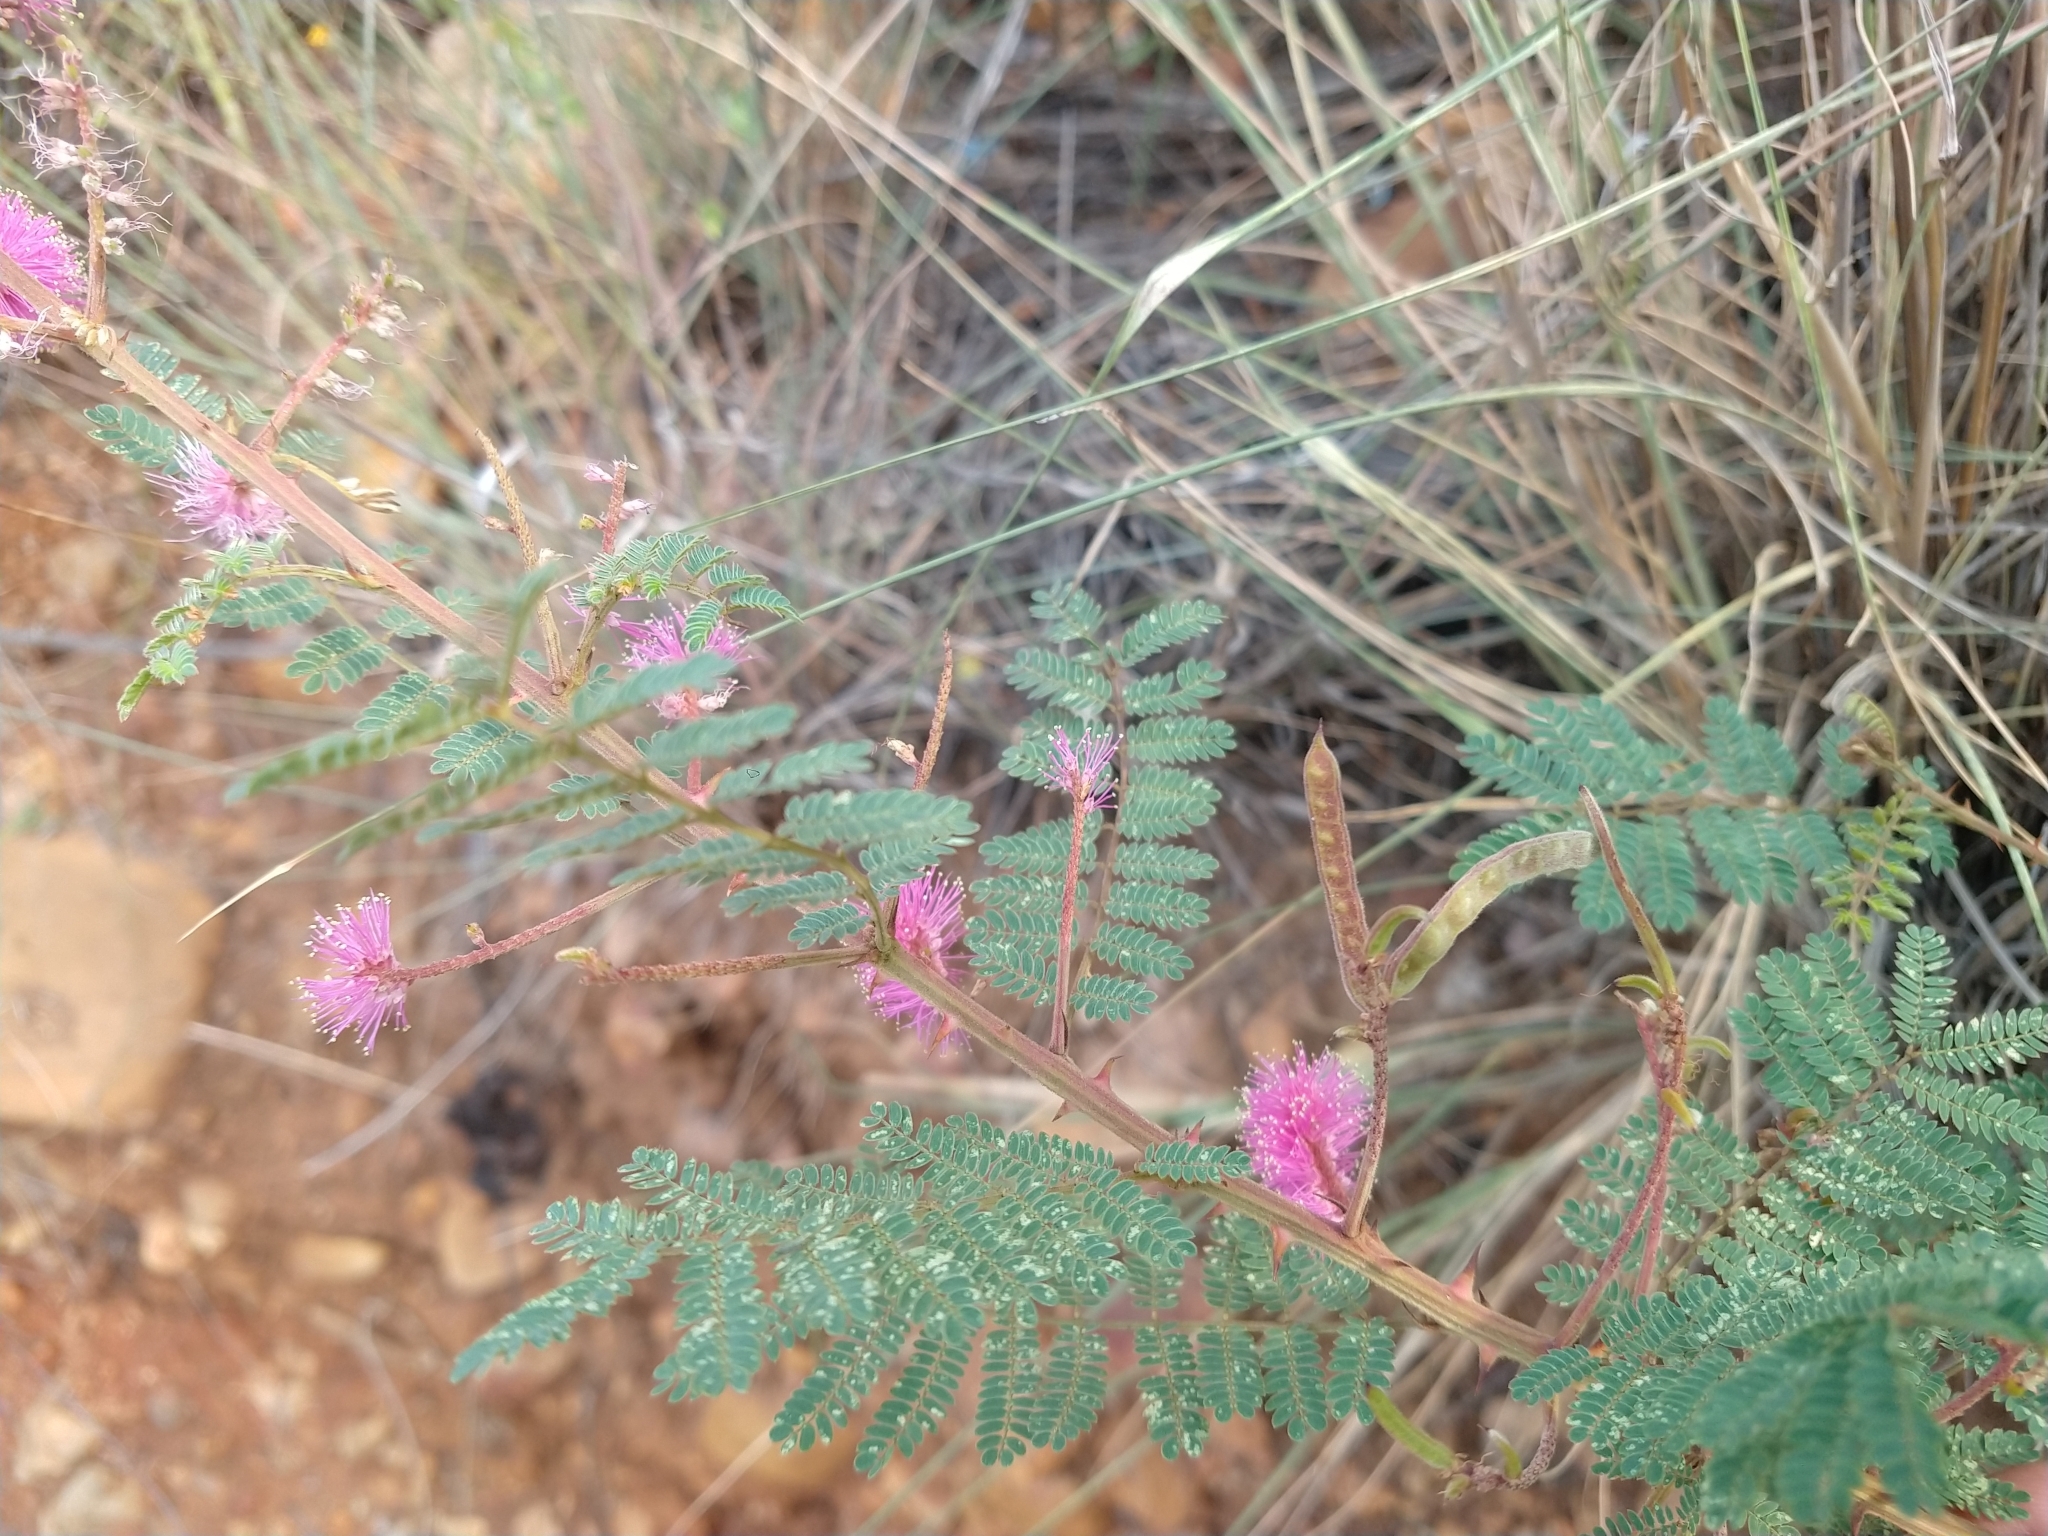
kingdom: Plantae
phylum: Tracheophyta
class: Magnoliopsida
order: Fabales
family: Fabaceae
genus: Mimosa
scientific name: Mimosa dysocarpa
